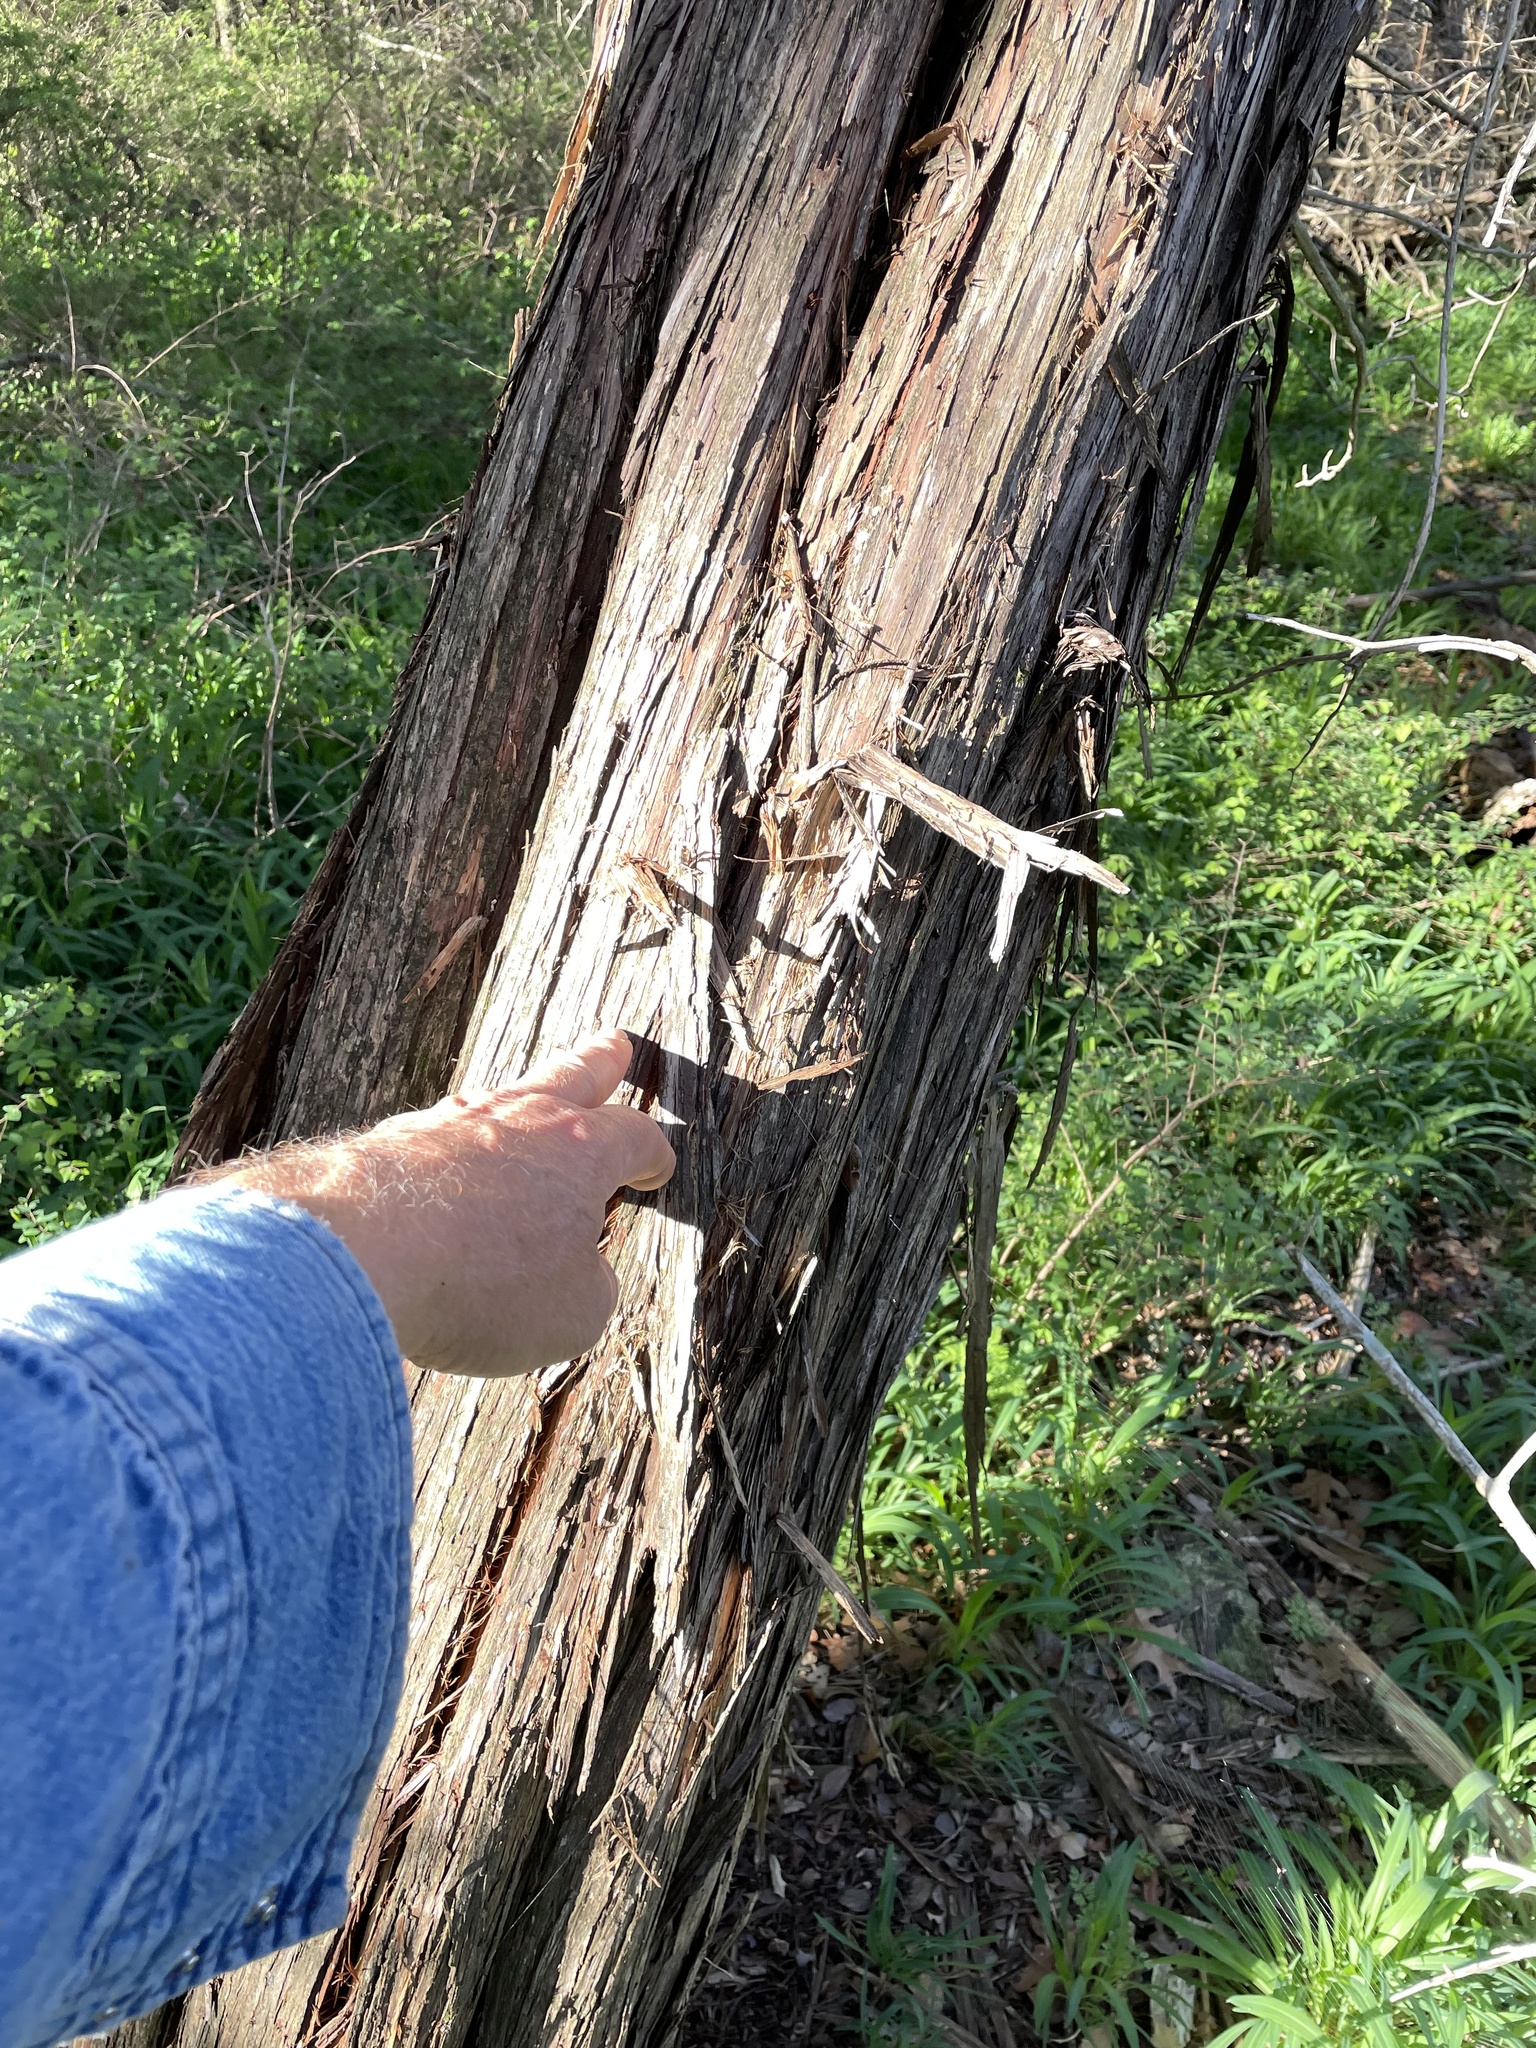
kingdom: Plantae
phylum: Tracheophyta
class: Pinopsida
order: Pinales
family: Cupressaceae
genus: Juniperus
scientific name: Juniperus ashei
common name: Mexican juniper
